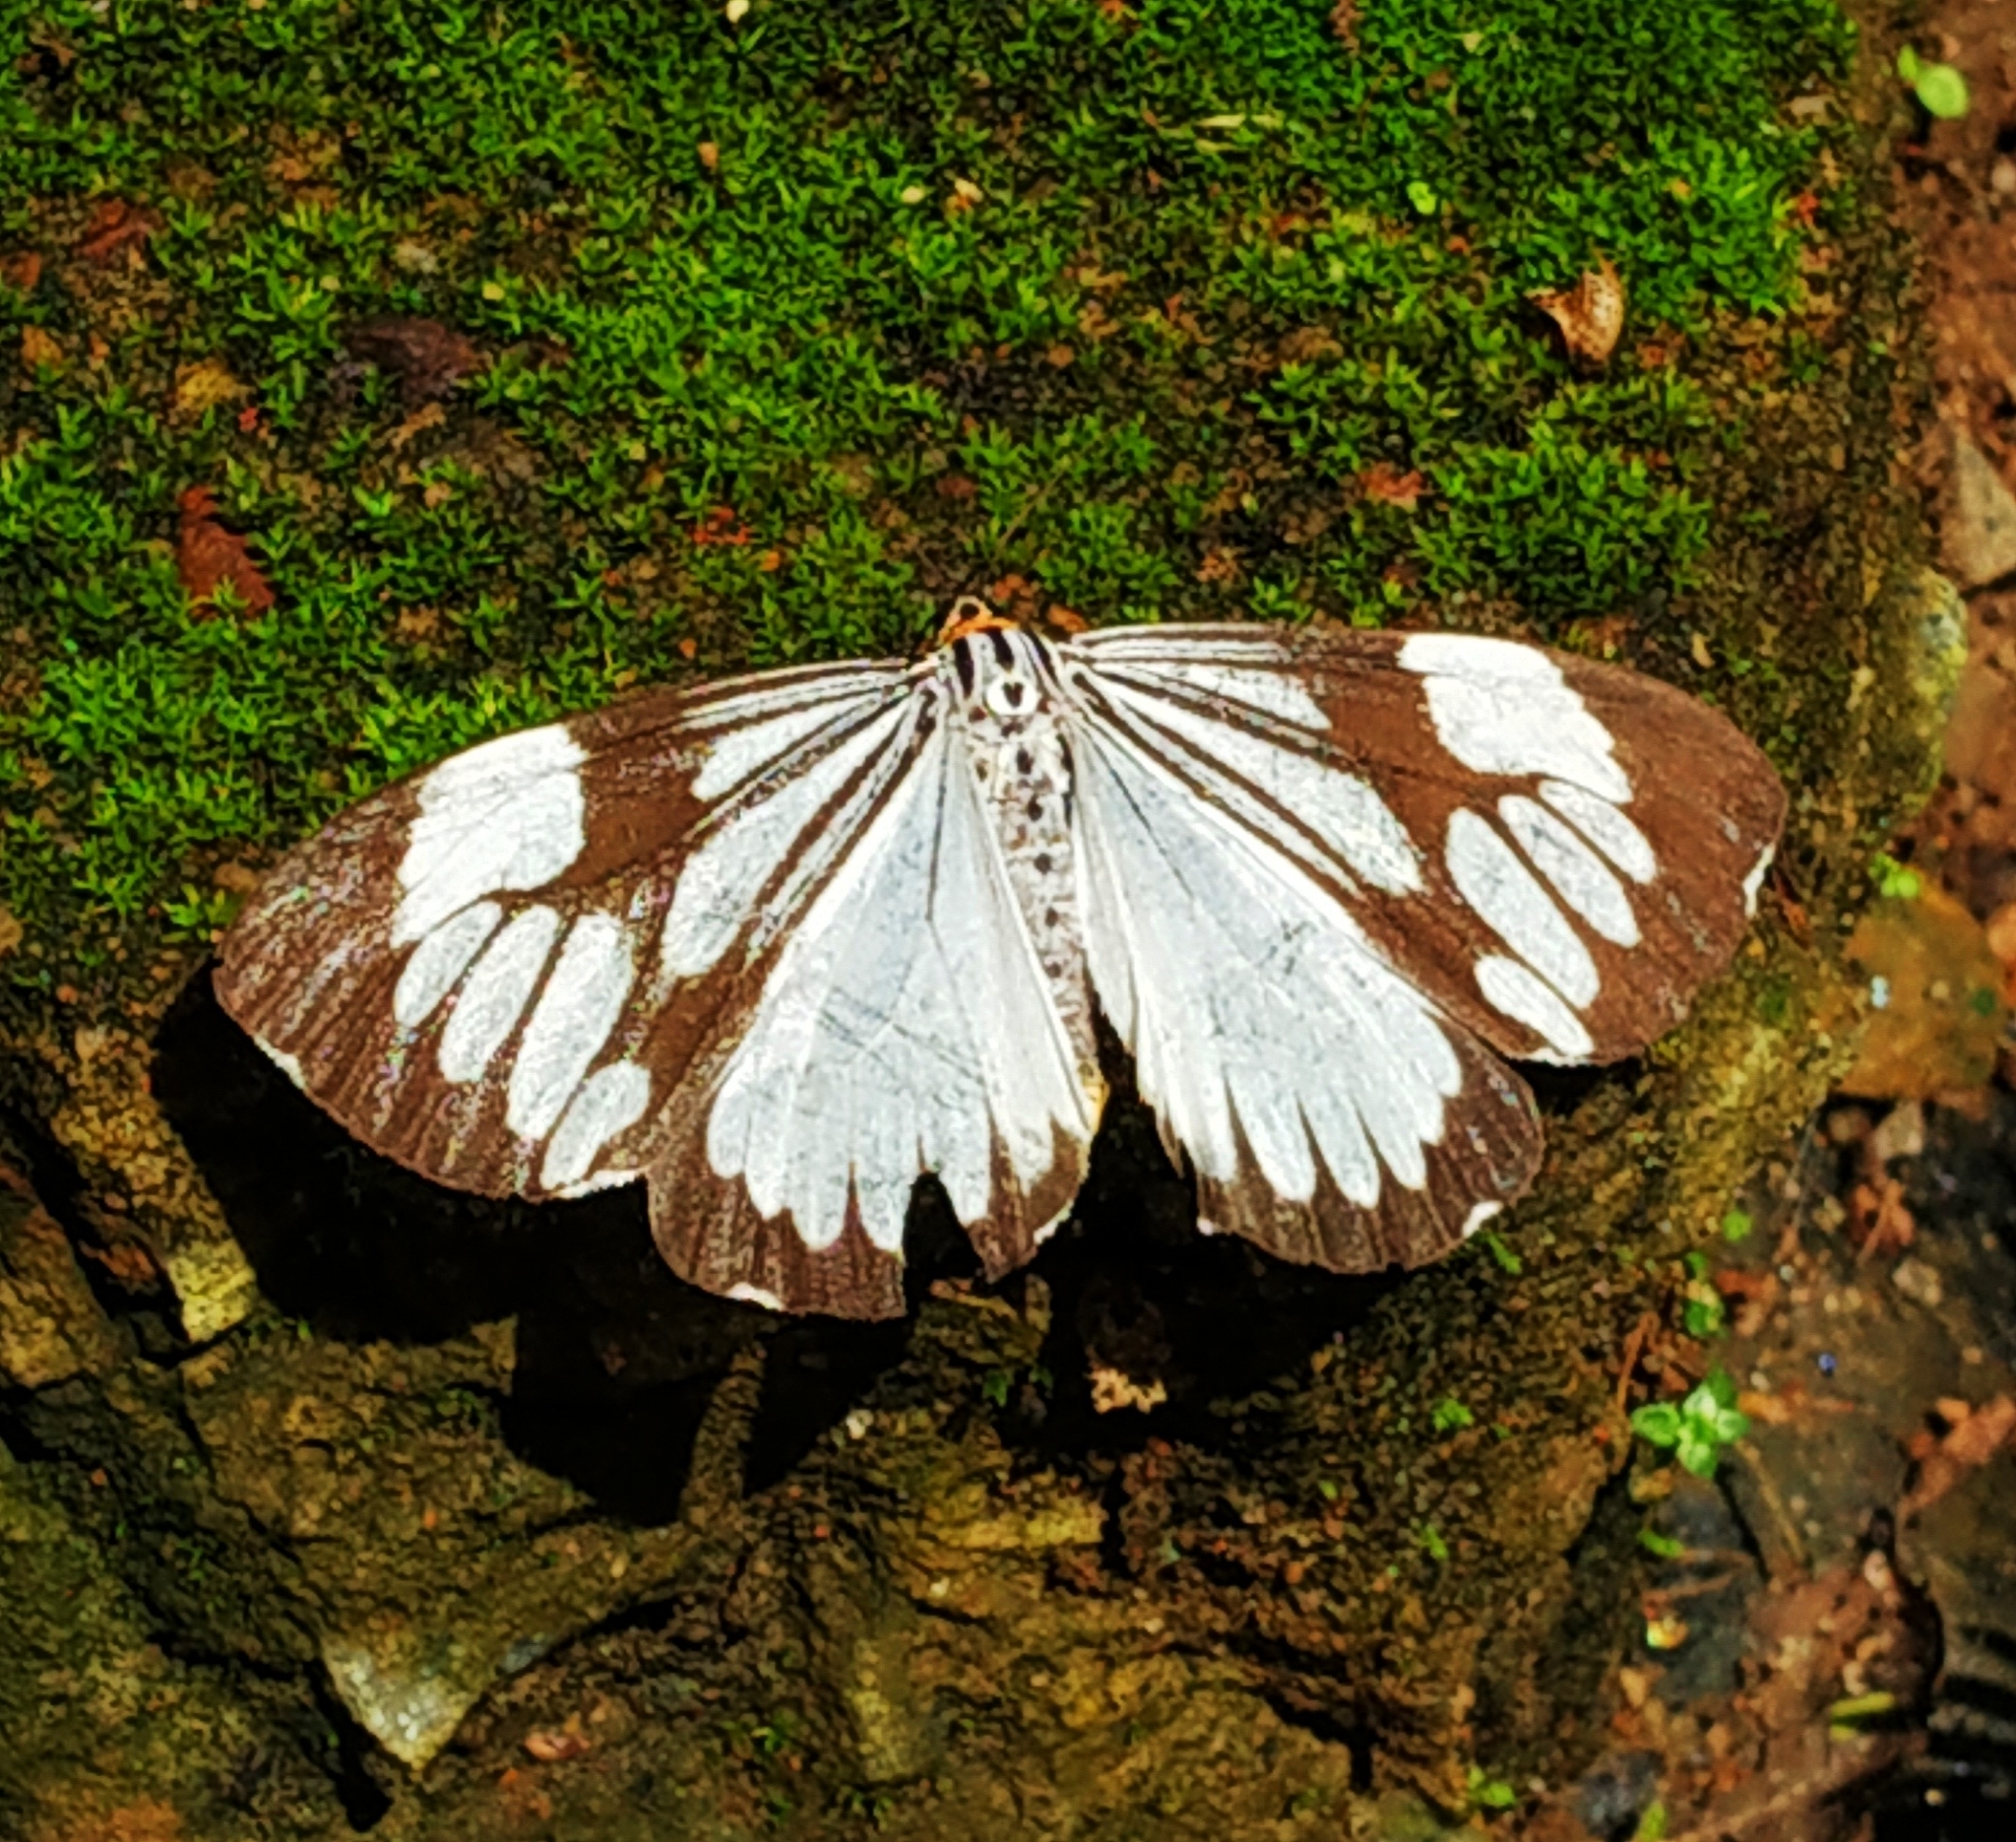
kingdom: Animalia
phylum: Arthropoda
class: Insecta
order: Lepidoptera
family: Erebidae
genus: Nyctemera
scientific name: Nyctemera coleta
